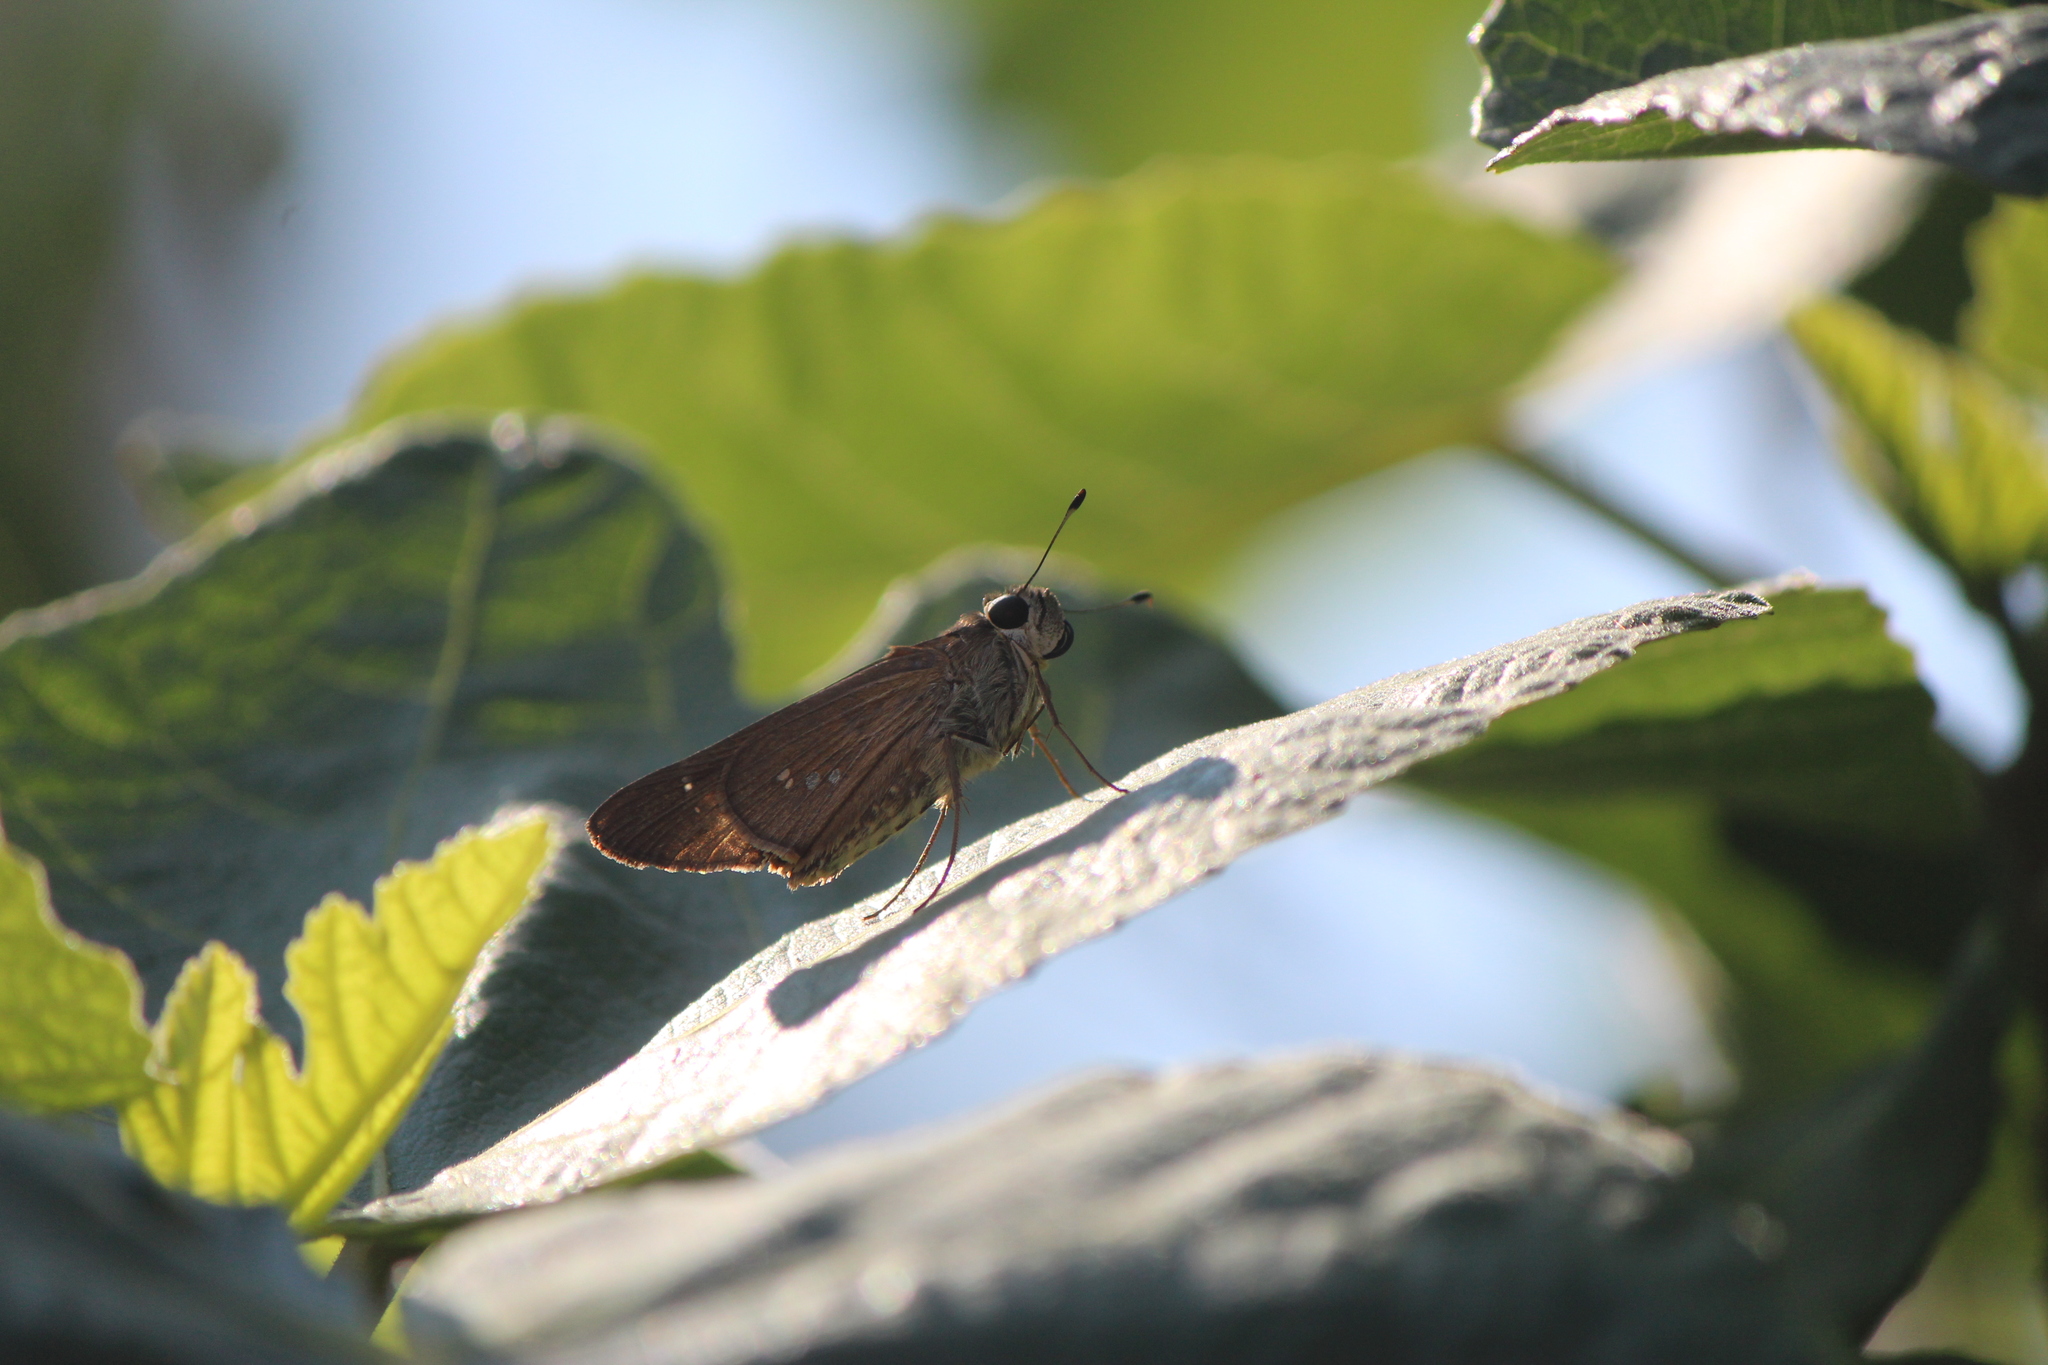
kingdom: Animalia
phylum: Arthropoda
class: Insecta
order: Lepidoptera
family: Hesperiidae
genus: Calpodes
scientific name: Calpodes ethlius
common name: Brazilian skipper
